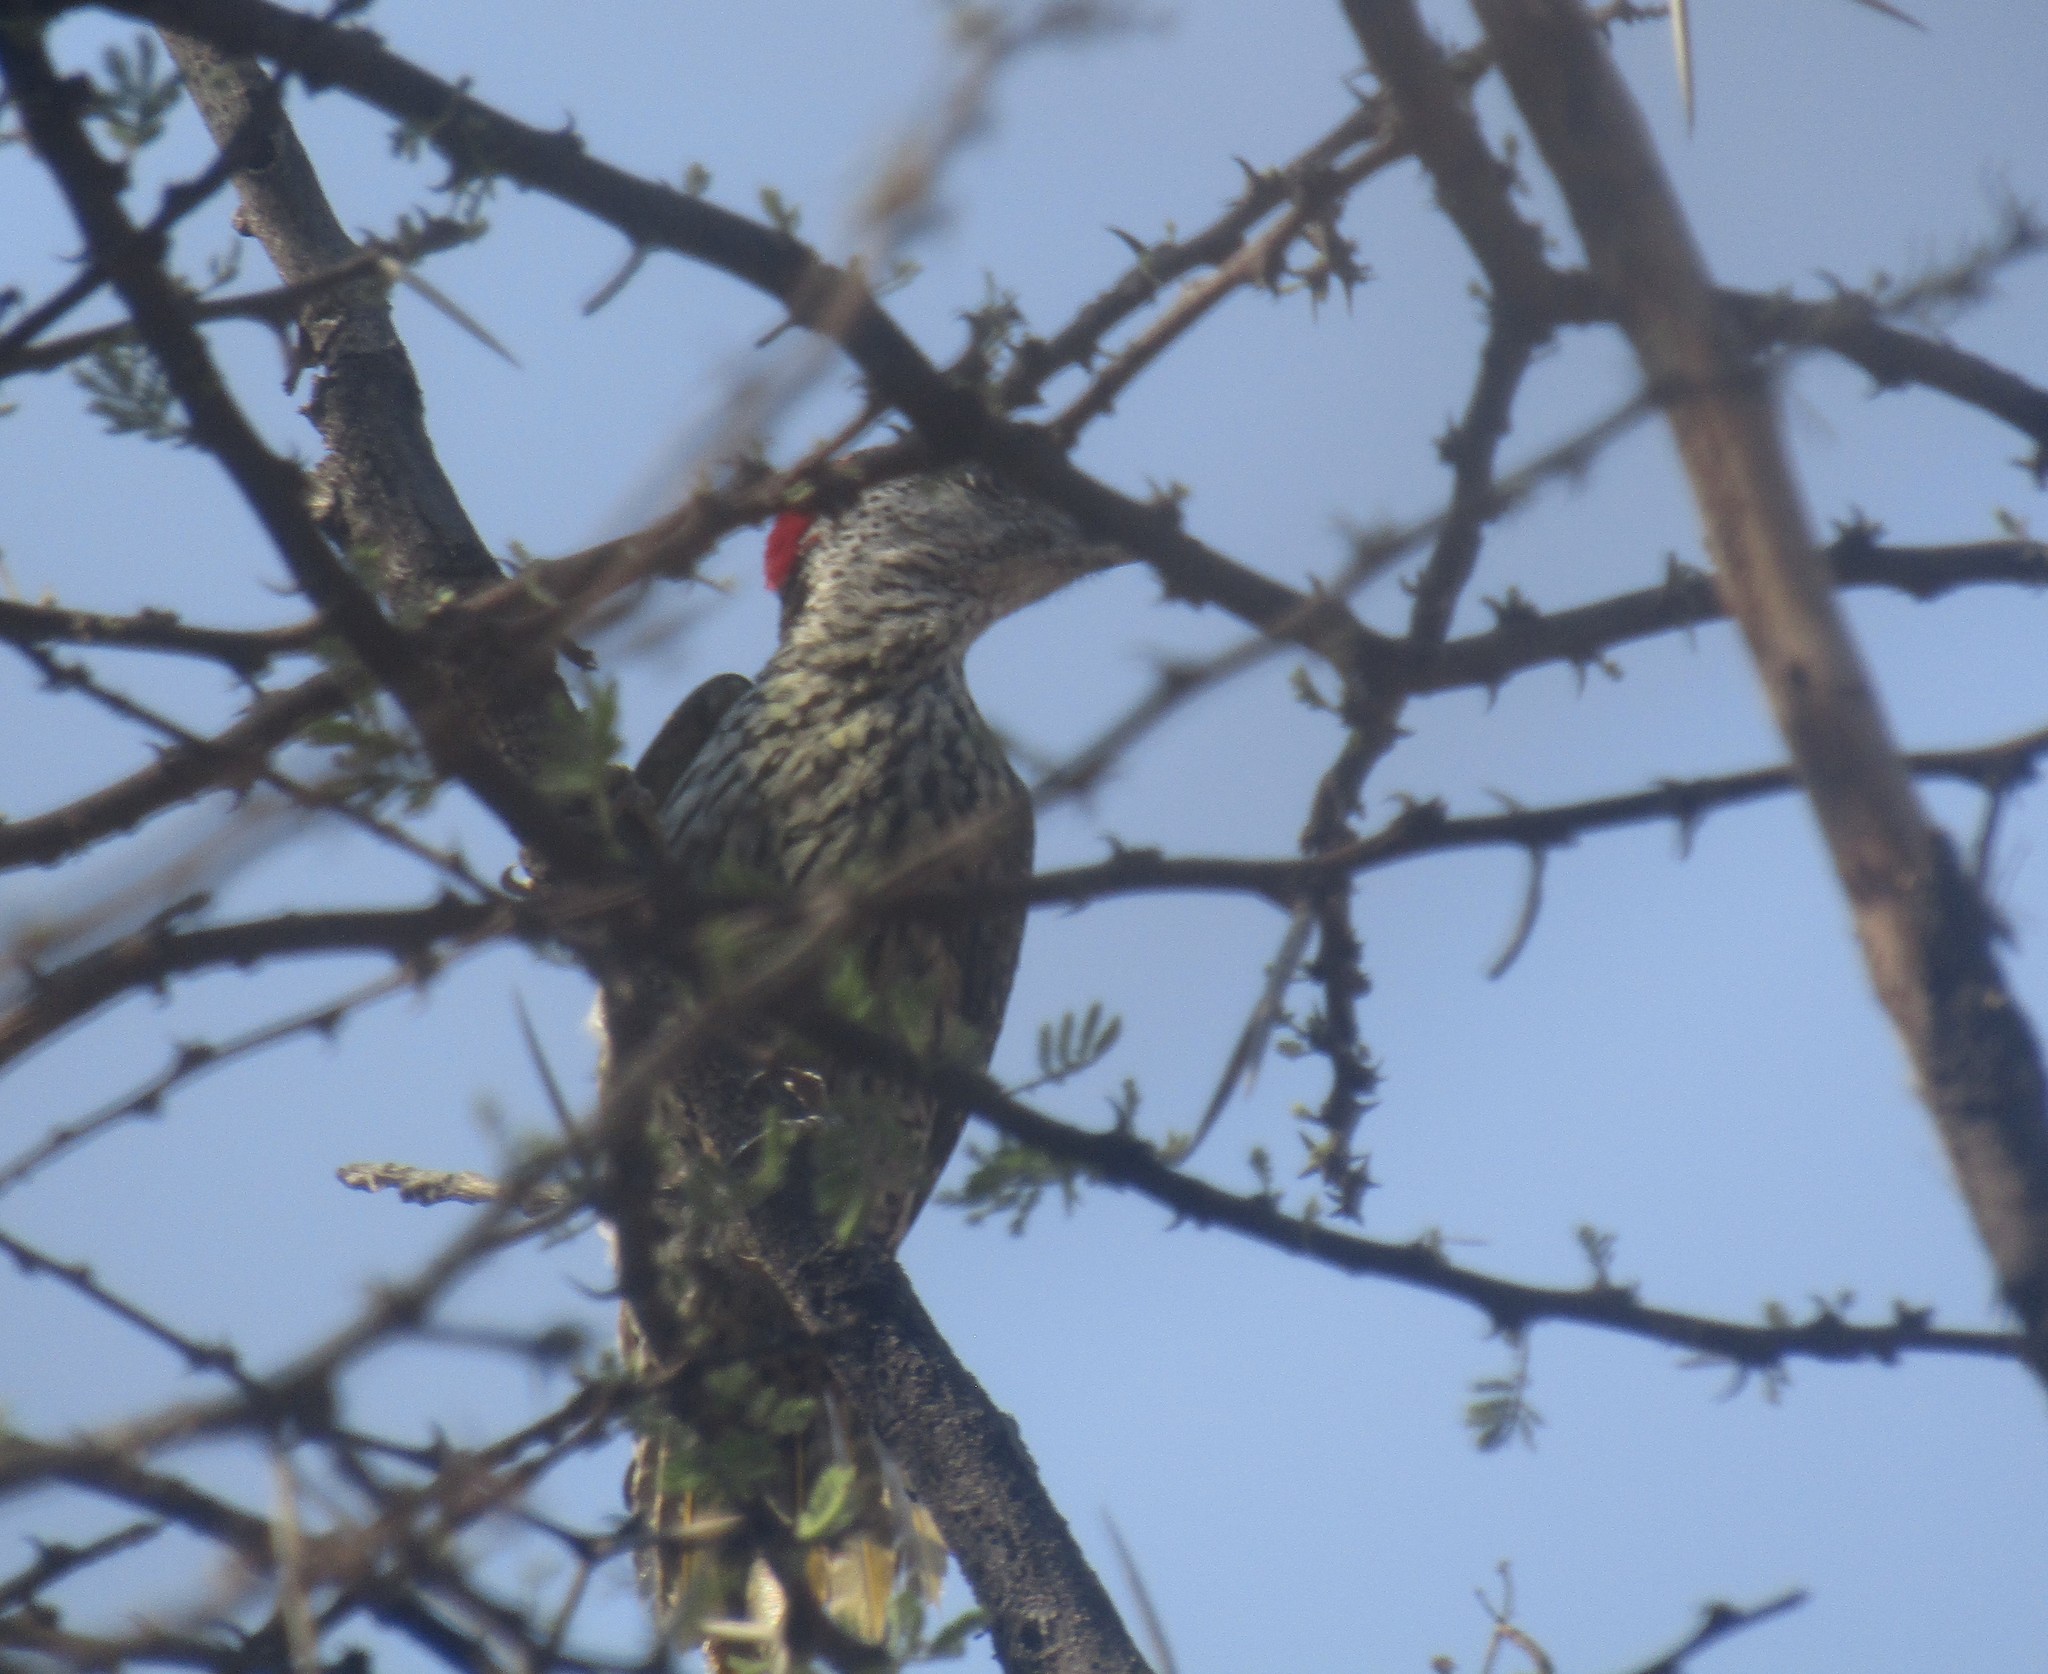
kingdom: Animalia
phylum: Chordata
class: Aves
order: Piciformes
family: Picidae
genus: Campethera
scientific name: Campethera abingoni
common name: Golden-tailed woodpecker
